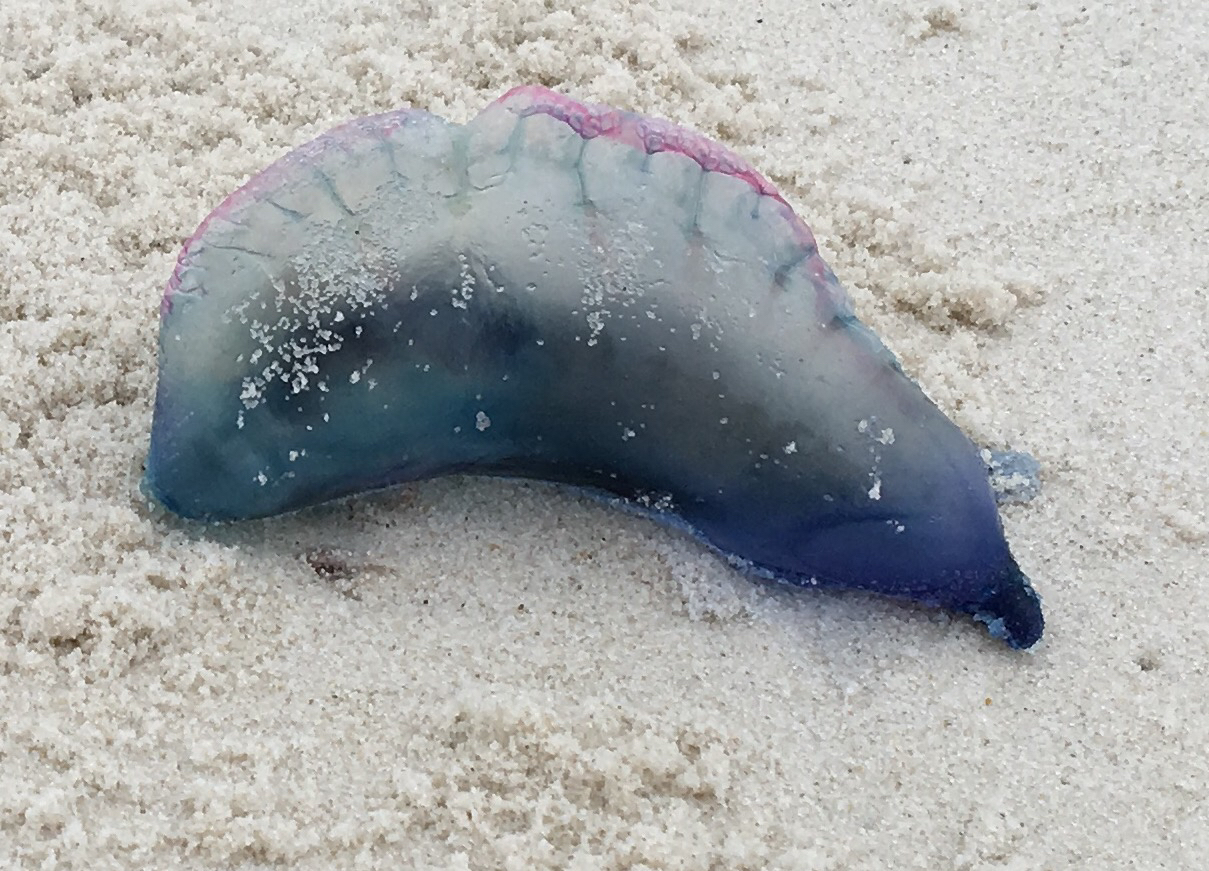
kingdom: Animalia
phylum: Cnidaria
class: Hydrozoa
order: Siphonophorae
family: Physaliidae
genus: Physalia
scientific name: Physalia physalis
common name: Portuguese man-of-war
